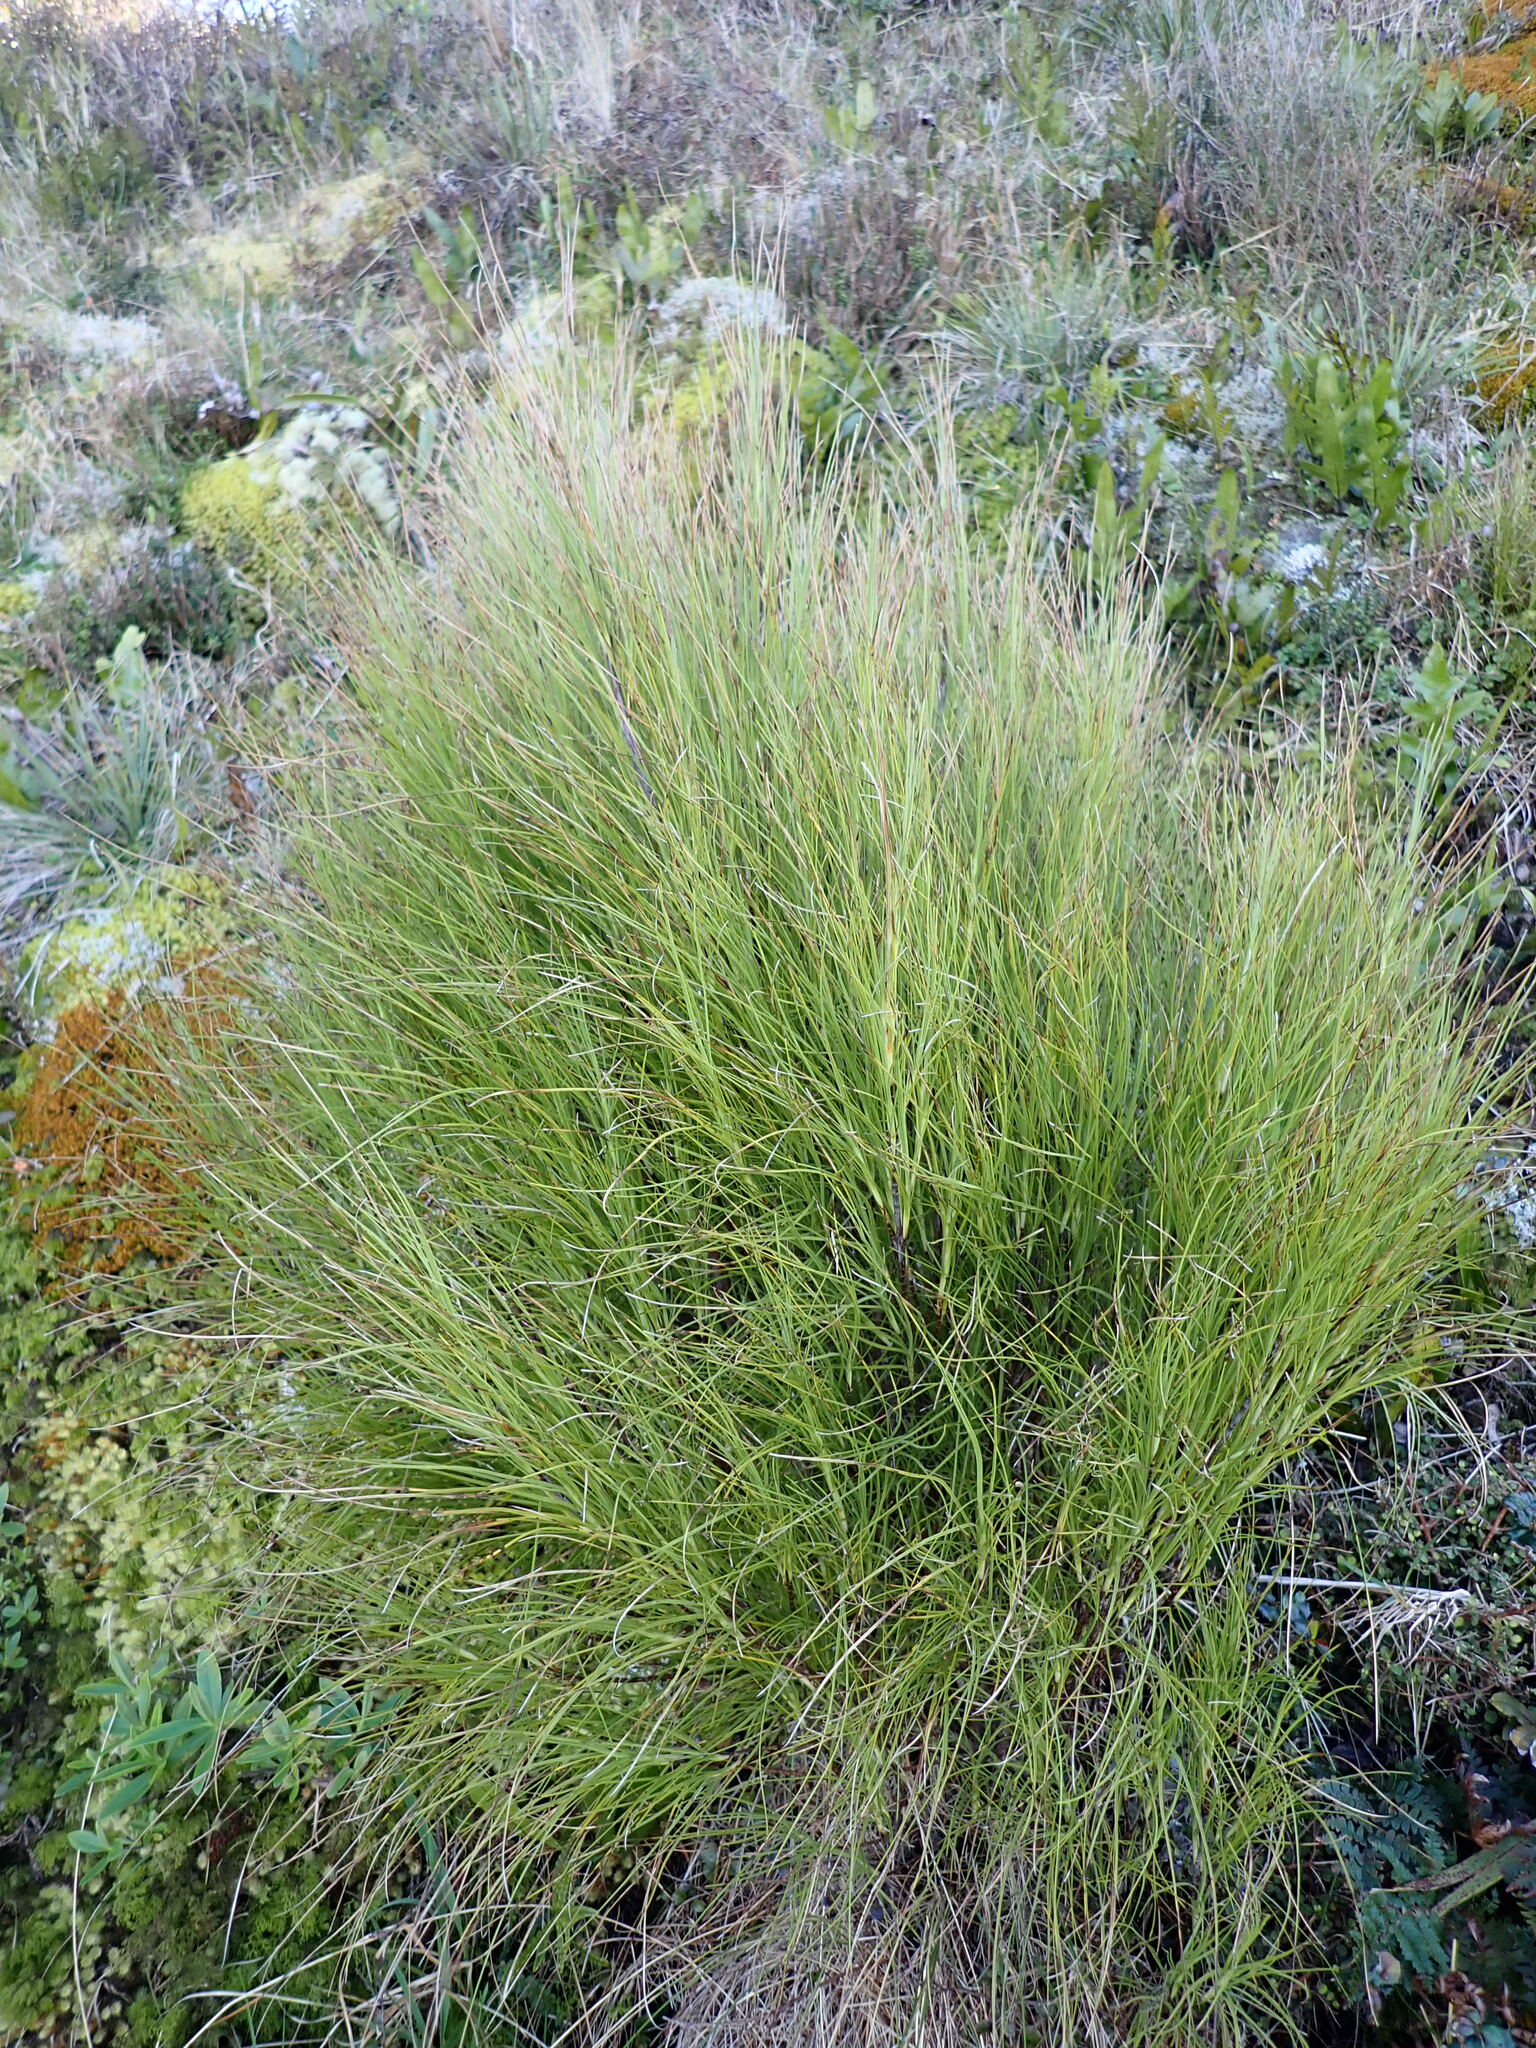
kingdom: Plantae
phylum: Tracheophyta
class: Magnoliopsida
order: Ericales
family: Ericaceae
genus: Dracophyllum
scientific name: Dracophyllum filifolium
